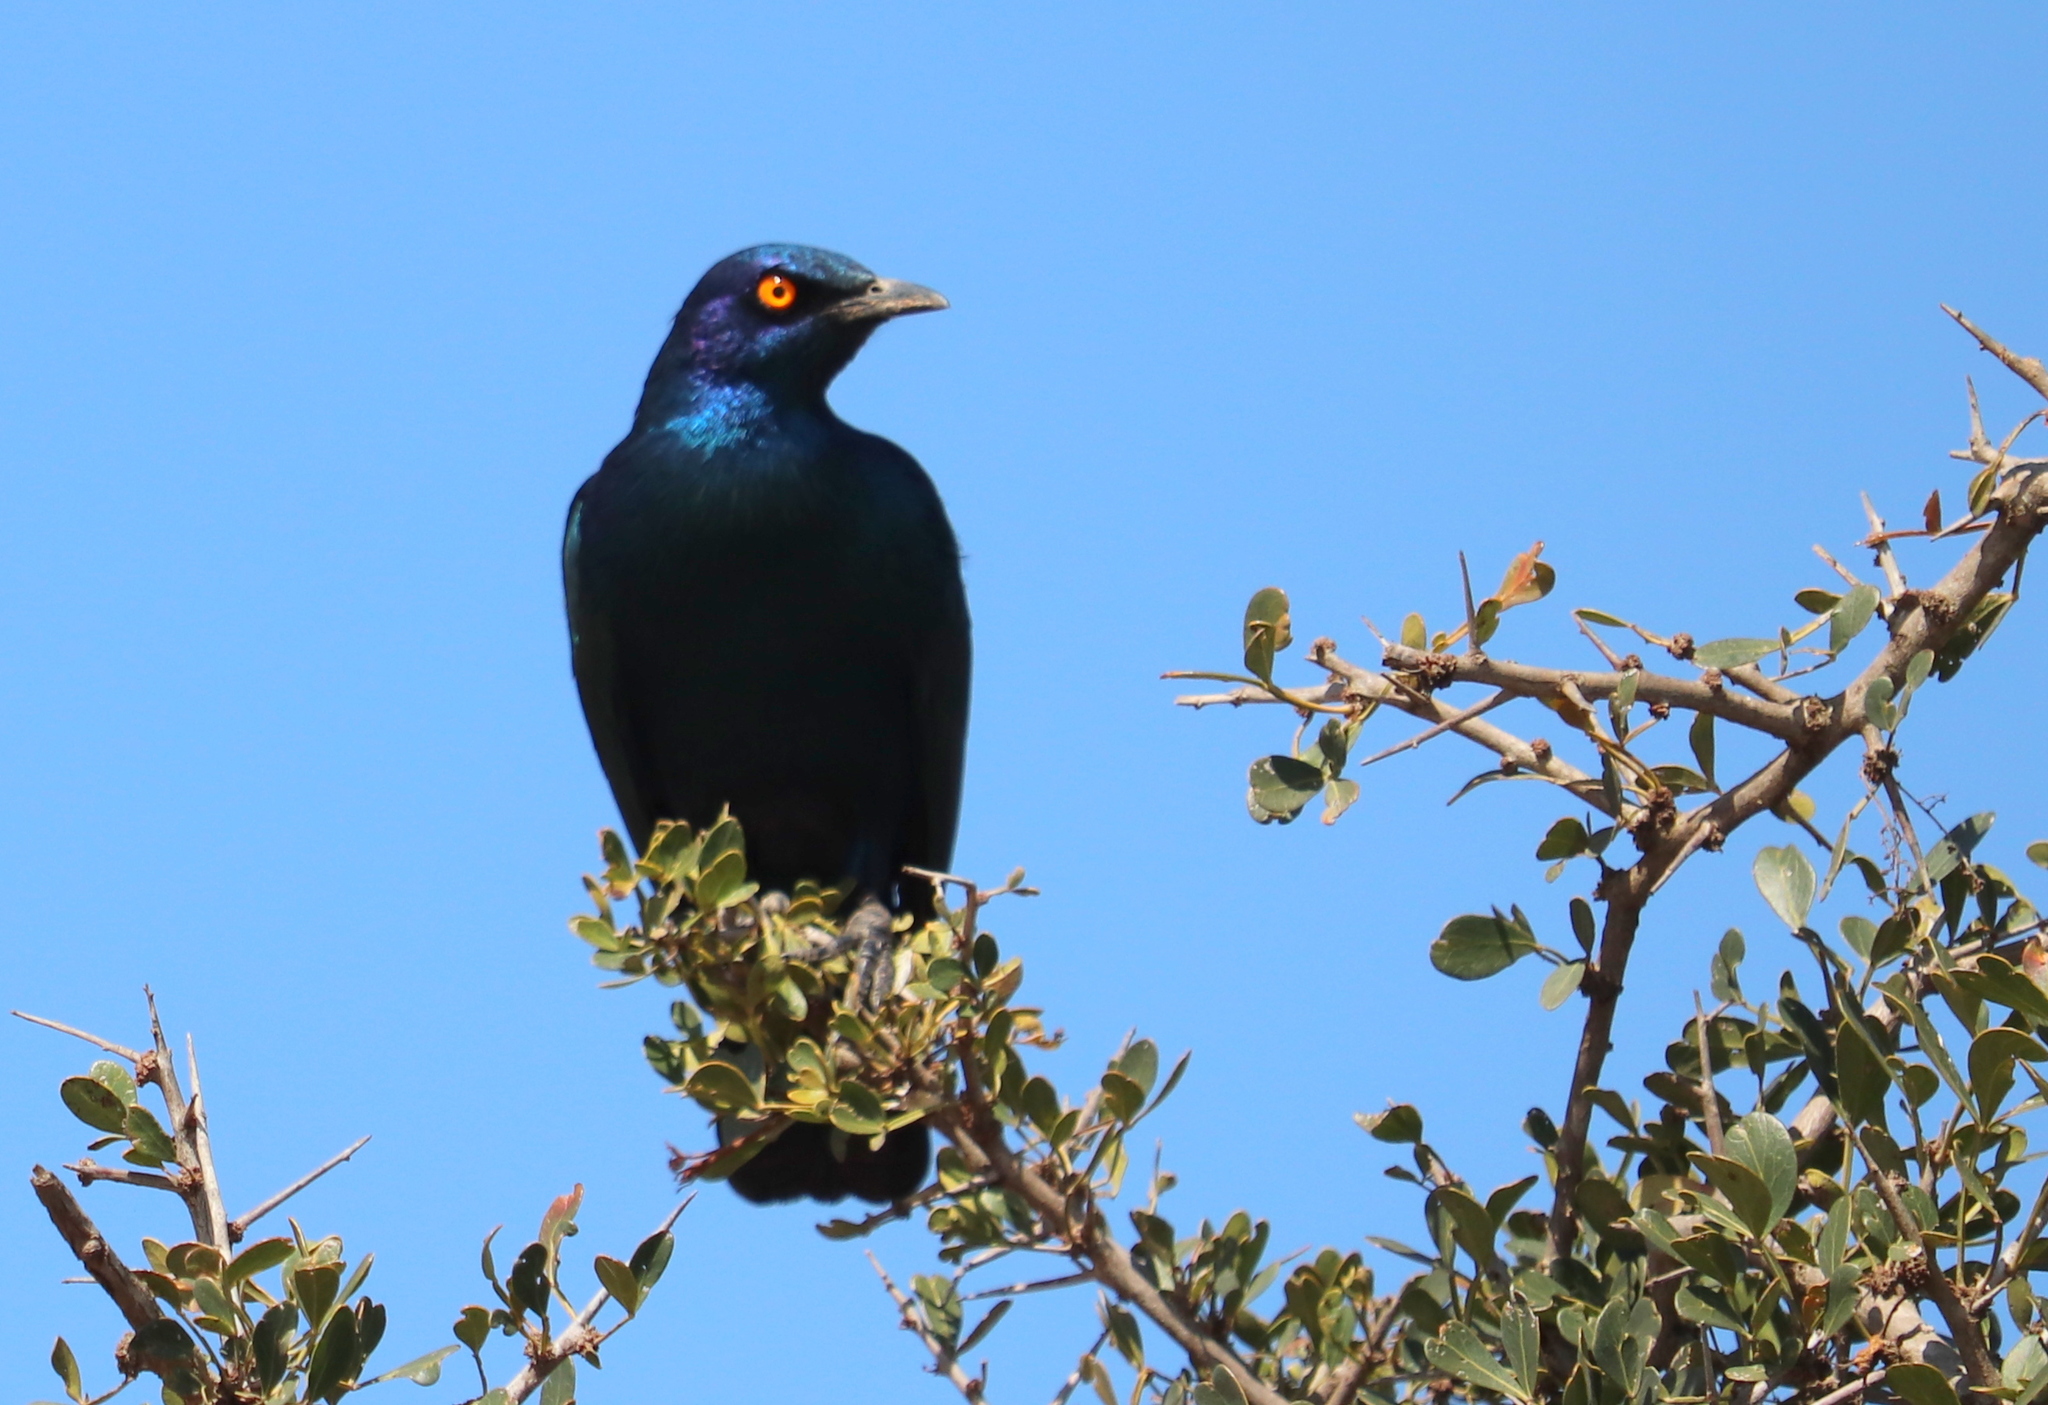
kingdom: Animalia
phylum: Chordata
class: Aves
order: Passeriformes
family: Sturnidae
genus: Lamprotornis
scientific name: Lamprotornis nitens
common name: Cape starling
